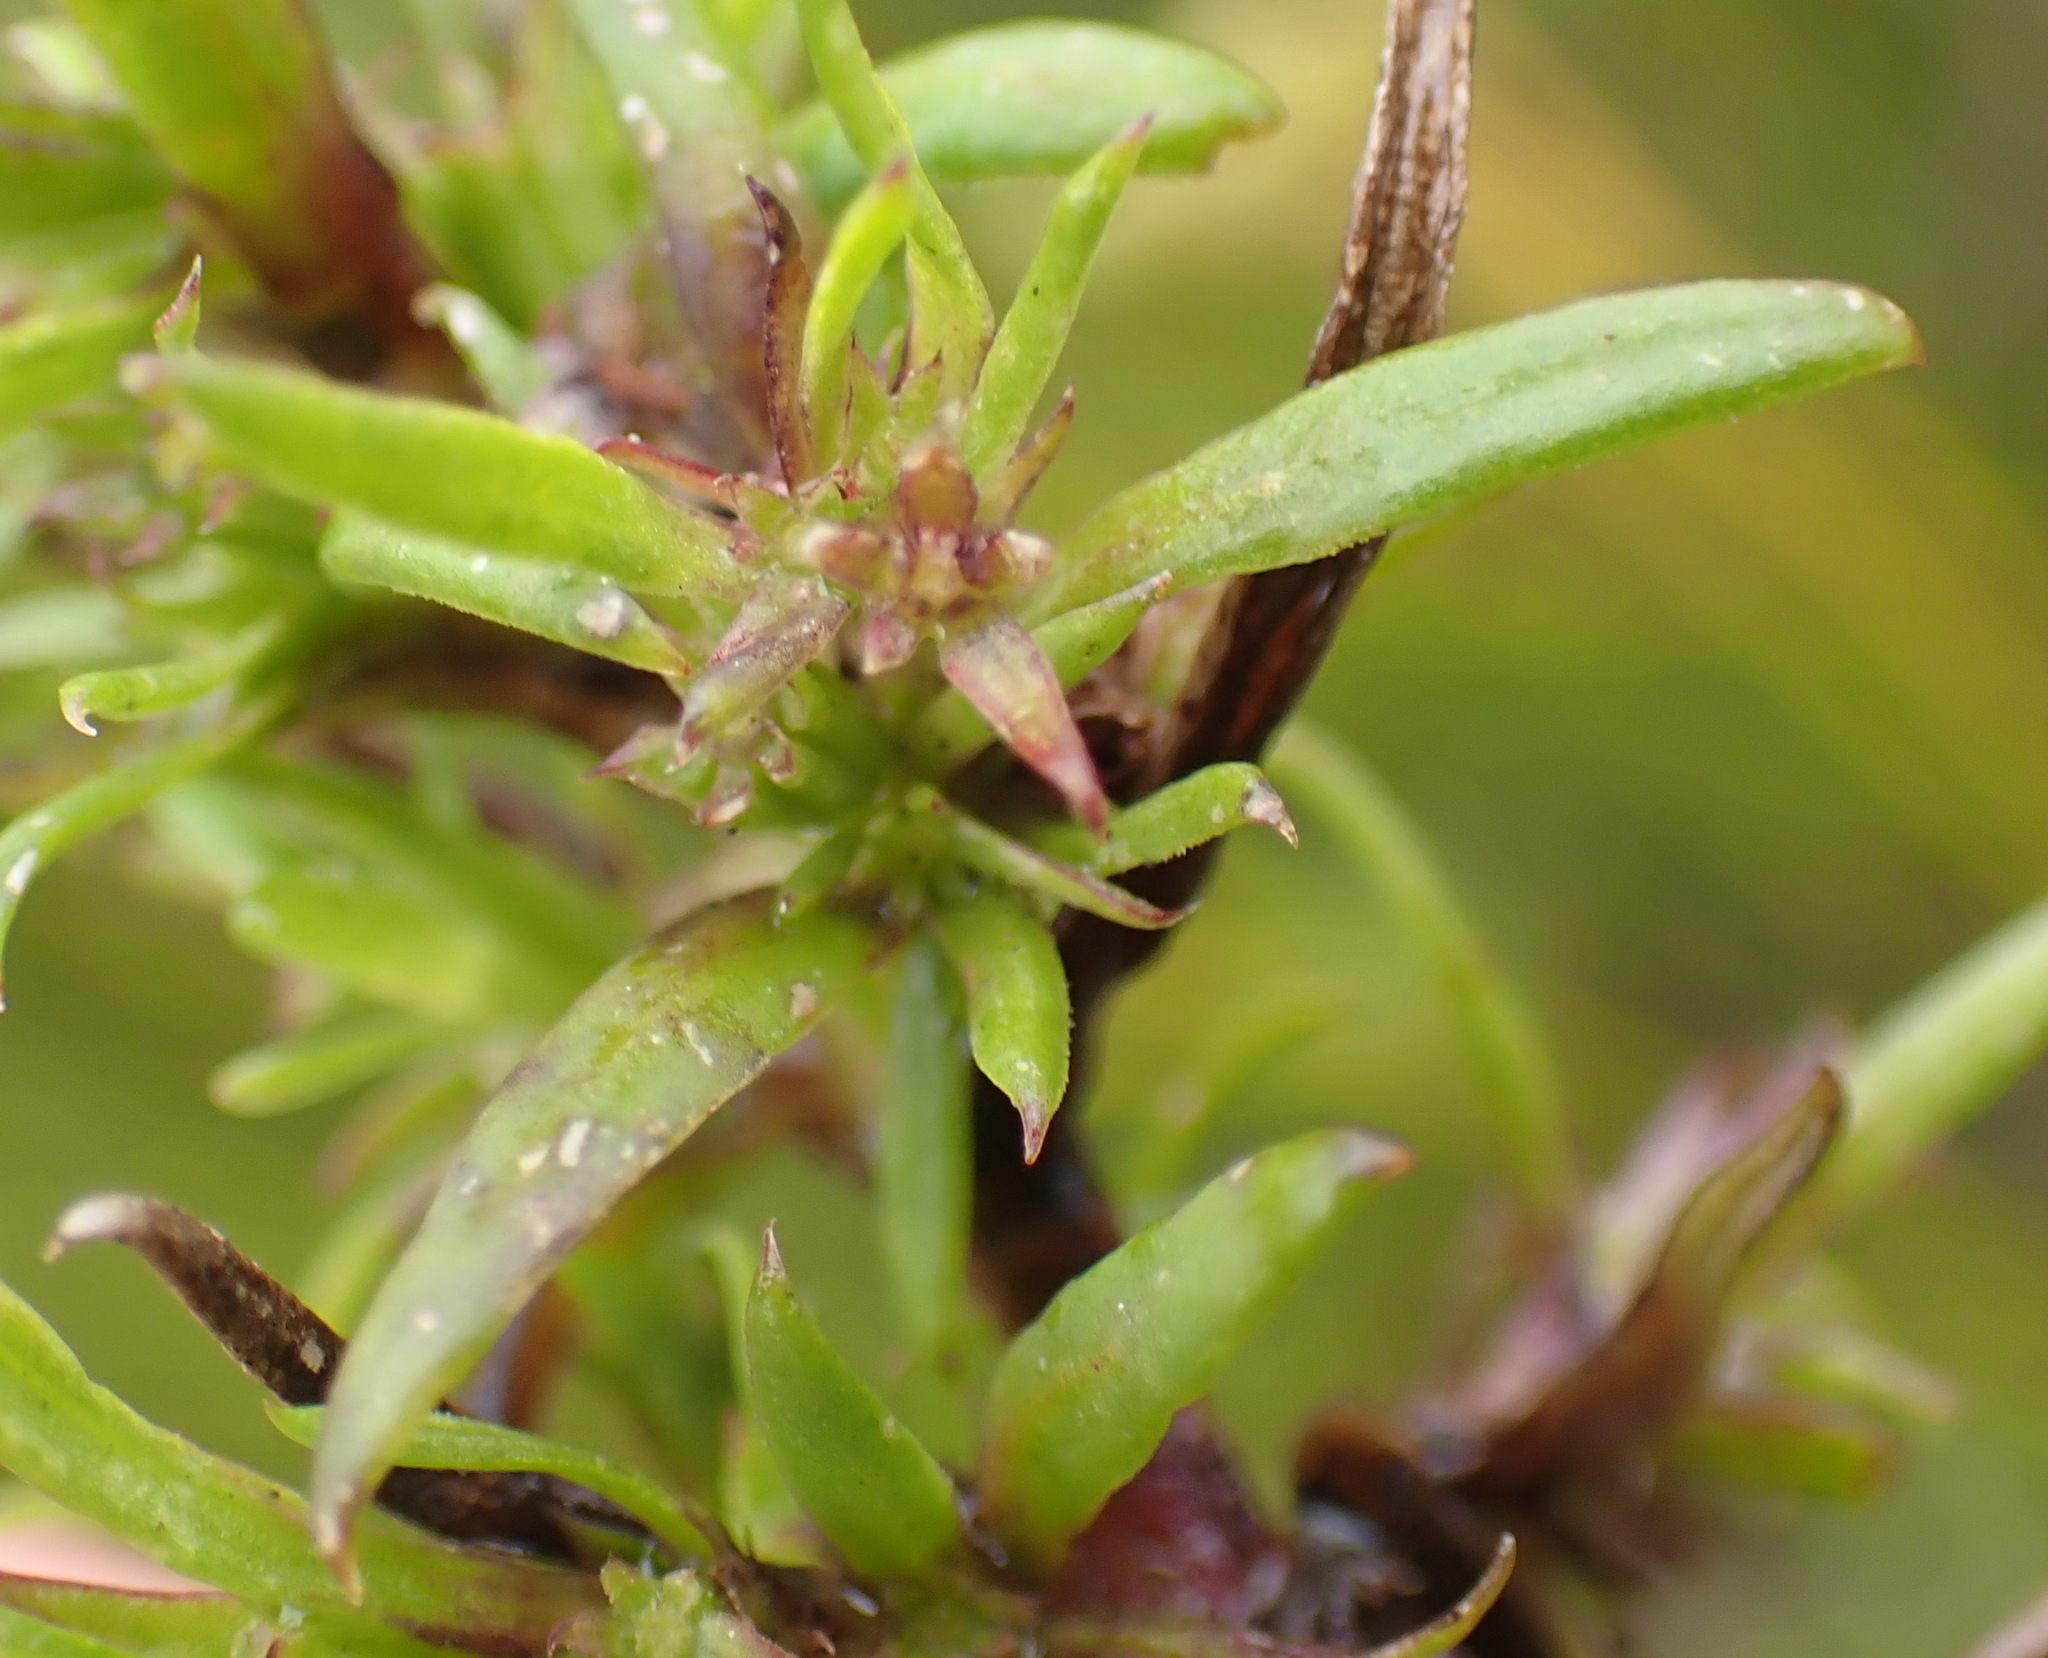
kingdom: Plantae
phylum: Tracheophyta
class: Magnoliopsida
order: Gentianales
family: Rubiaceae
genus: Carpacoce
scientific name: Carpacoce vaginellata
